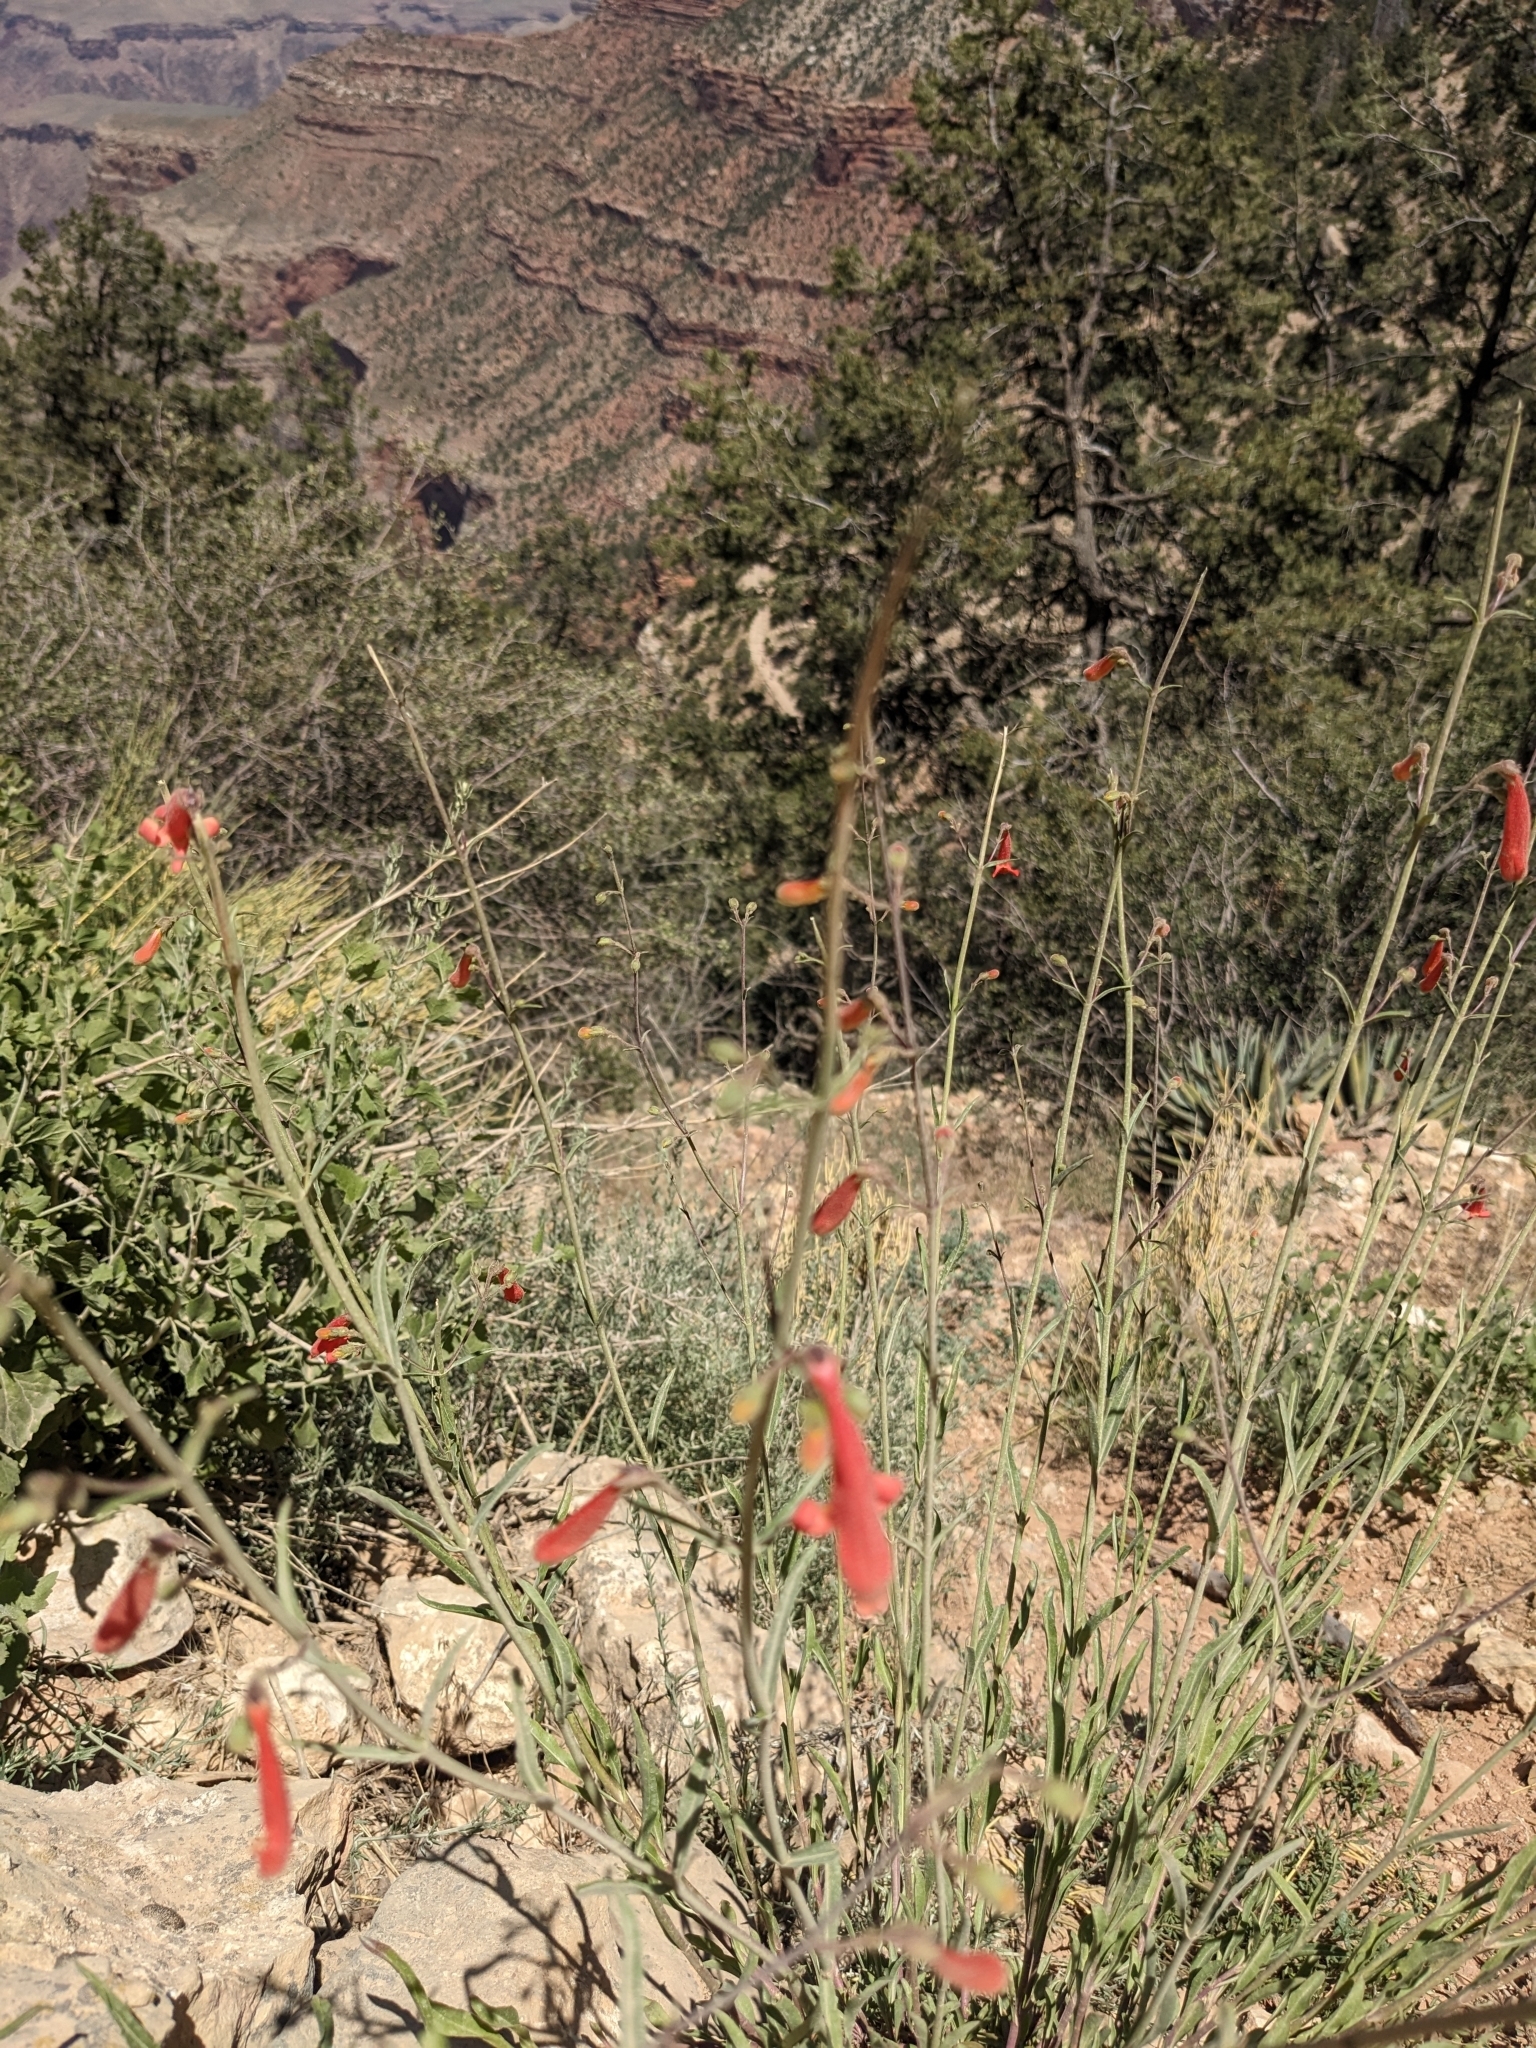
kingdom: Plantae
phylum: Tracheophyta
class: Magnoliopsida
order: Lamiales
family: Plantaginaceae
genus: Penstemon
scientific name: Penstemon rostriflorus
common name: Bridges's penstemon
